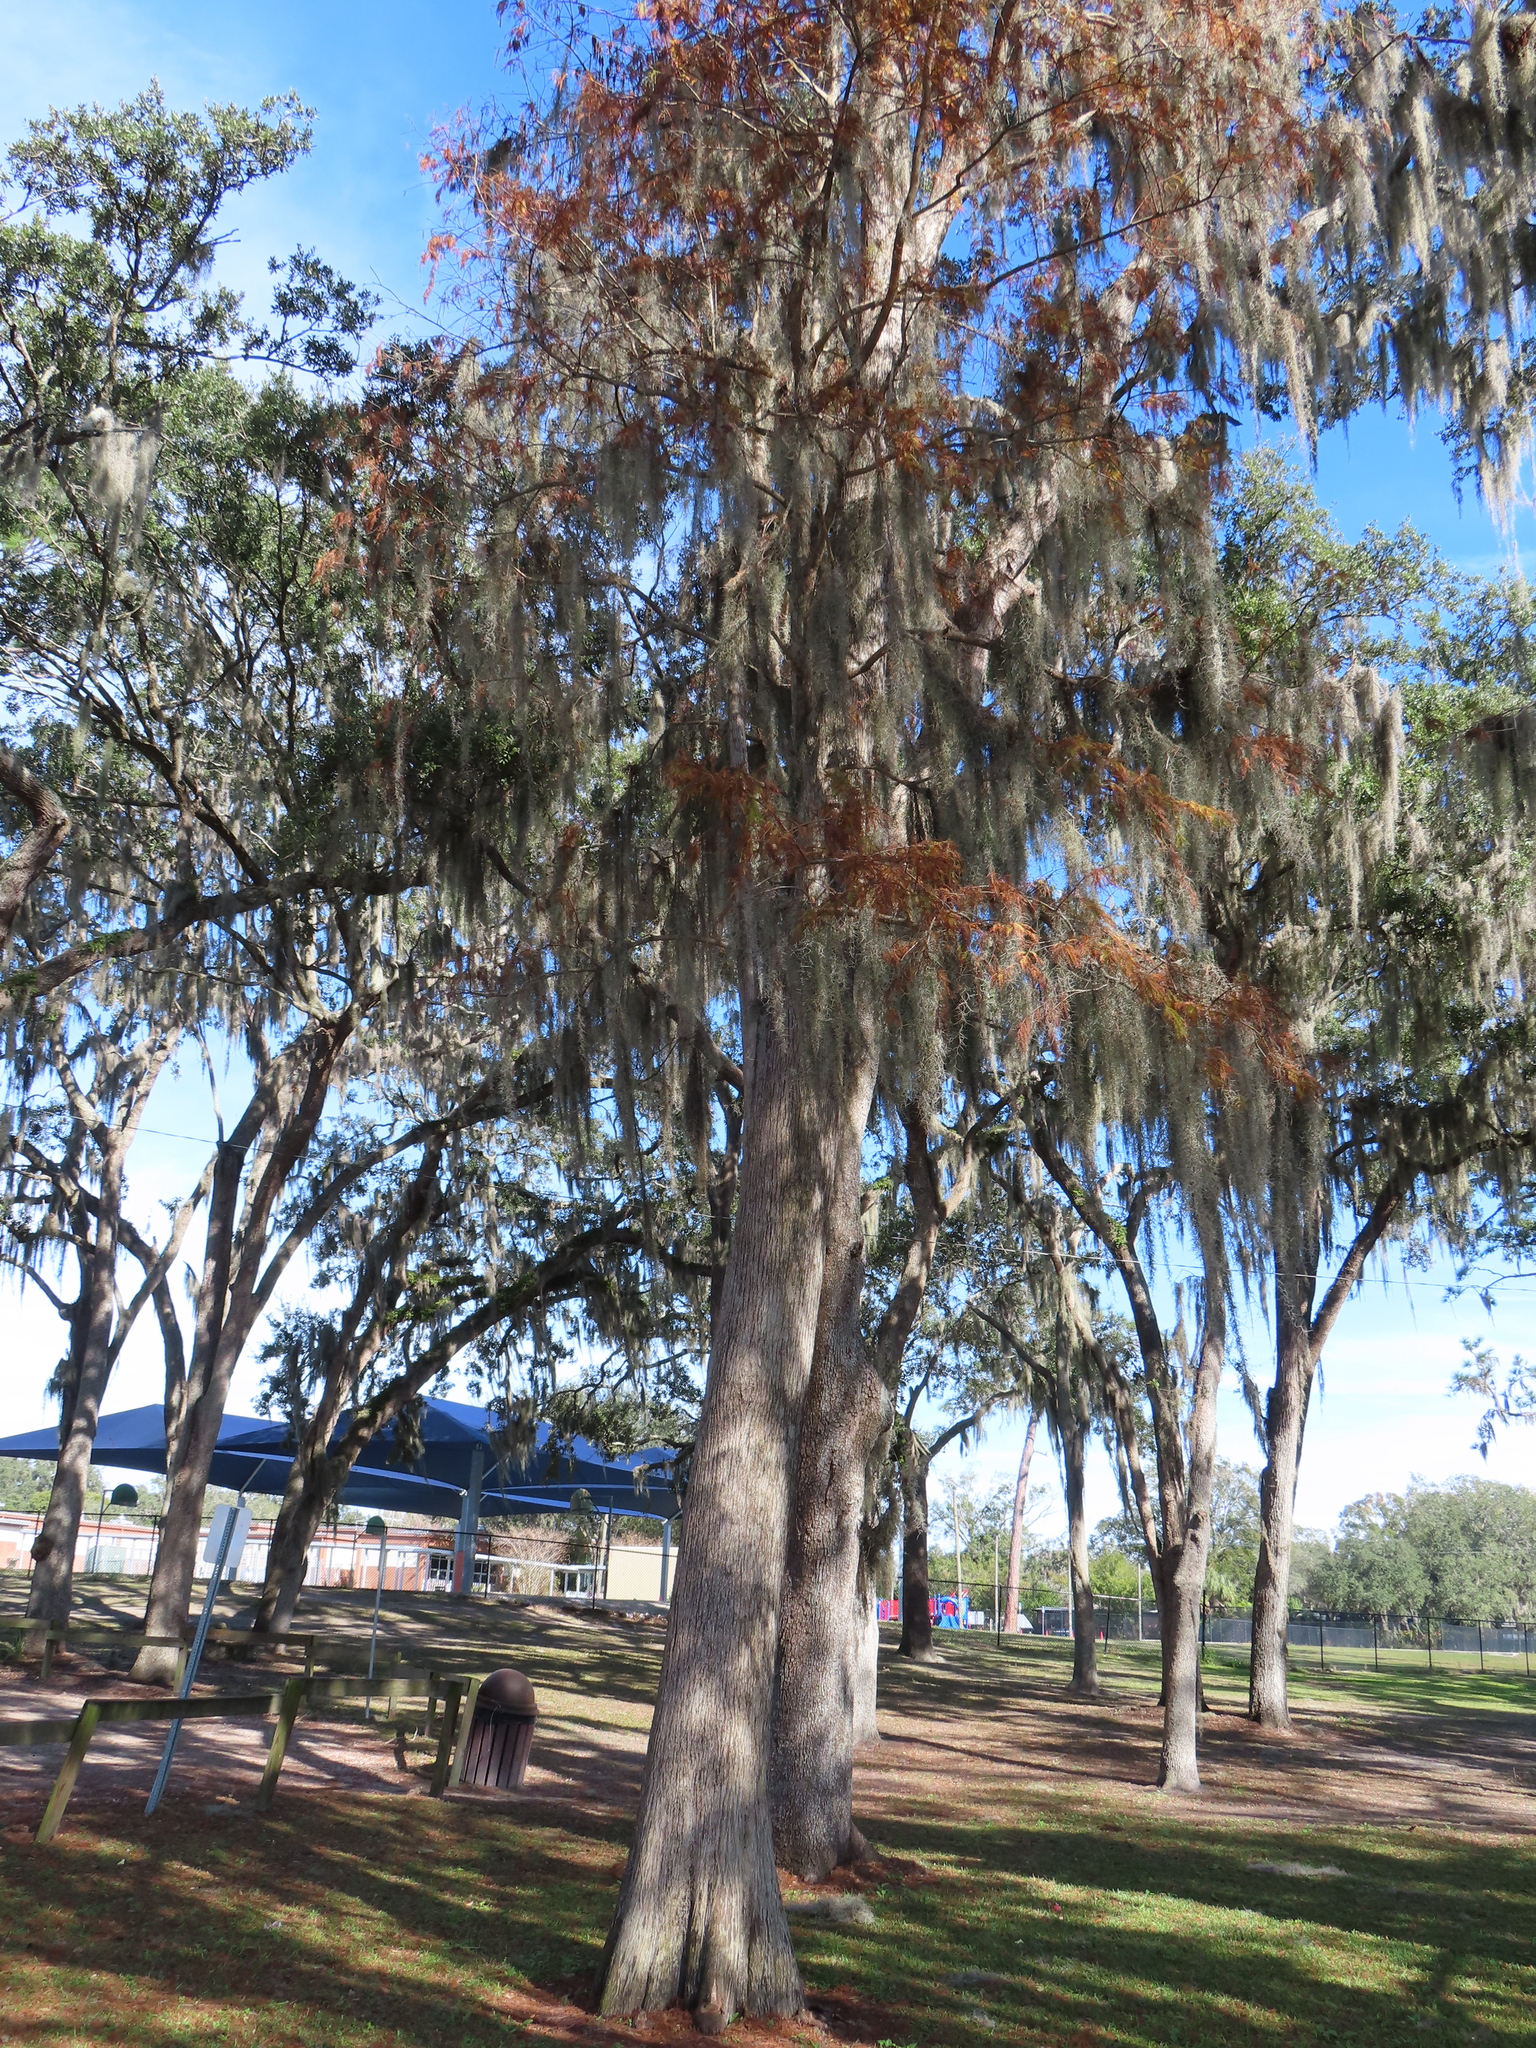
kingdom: Plantae
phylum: Tracheophyta
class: Pinopsida
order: Pinales
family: Cupressaceae
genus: Taxodium
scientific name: Taxodium distichum
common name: Bald cypress
